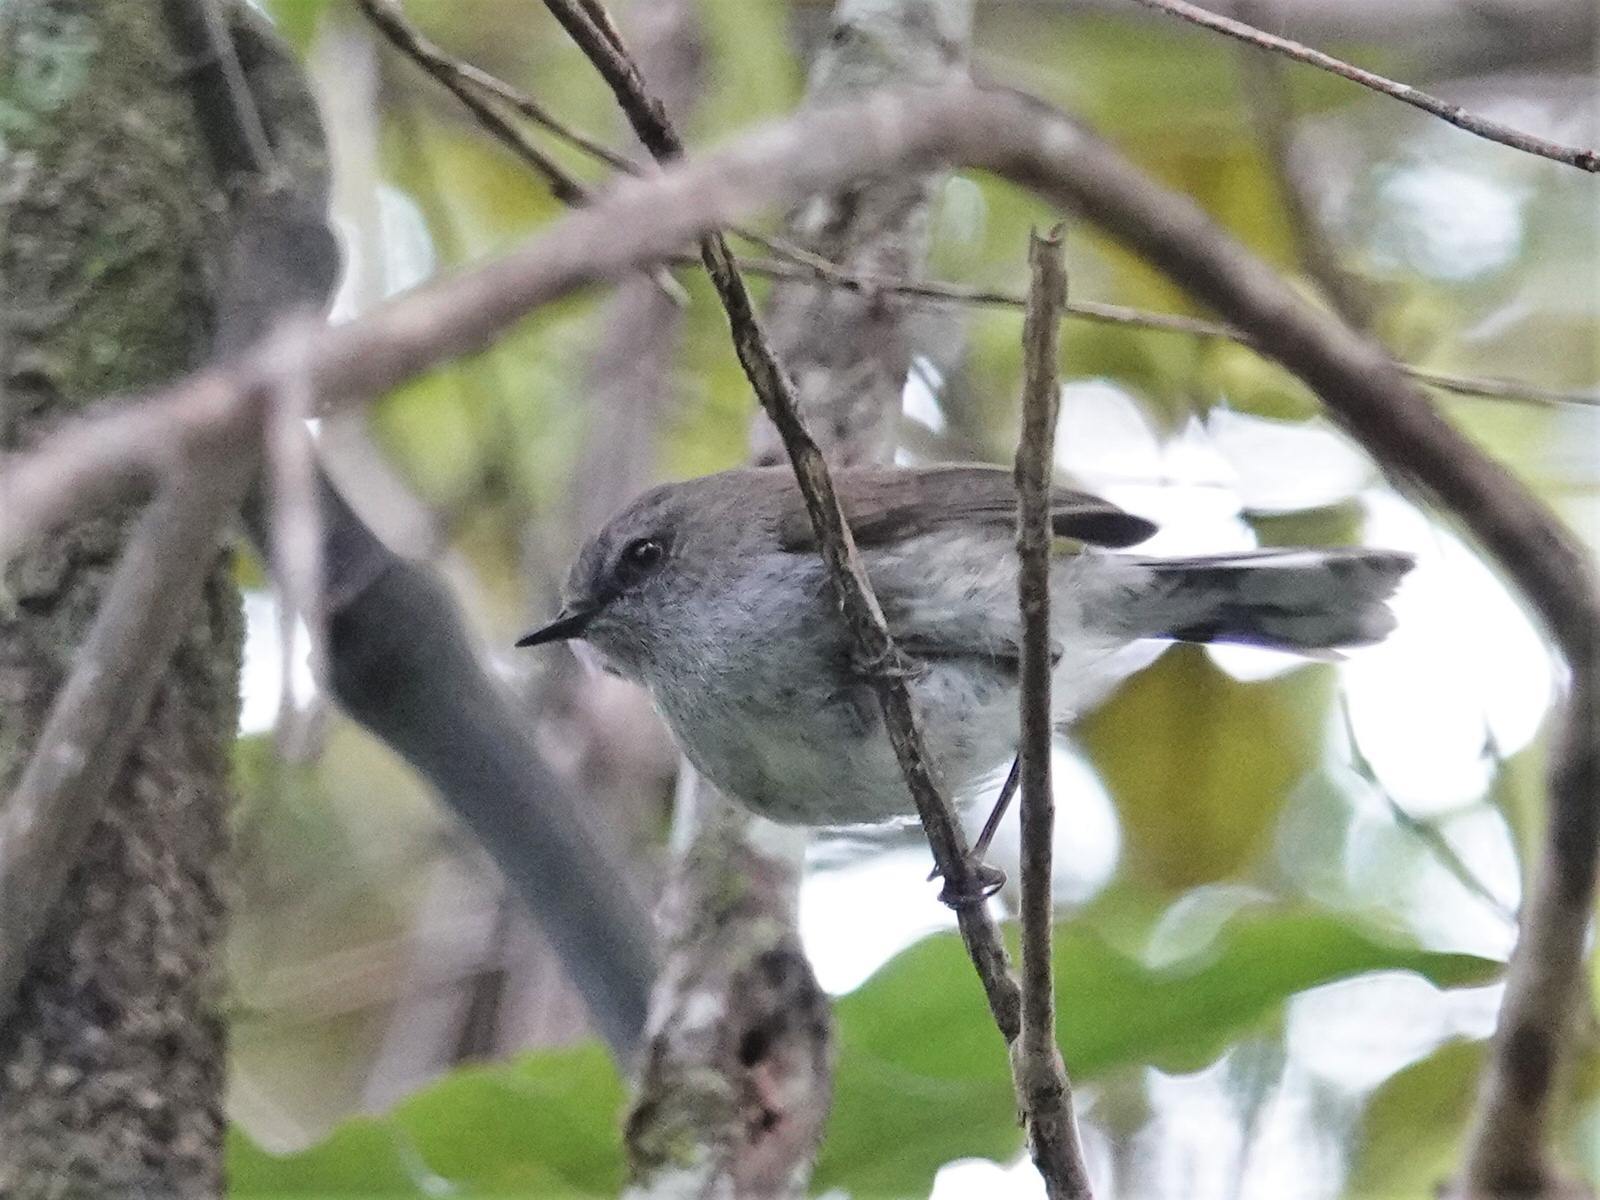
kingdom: Animalia
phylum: Chordata
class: Aves
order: Passeriformes
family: Acanthizidae
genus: Gerygone
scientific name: Gerygone igata
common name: Grey gerygone
